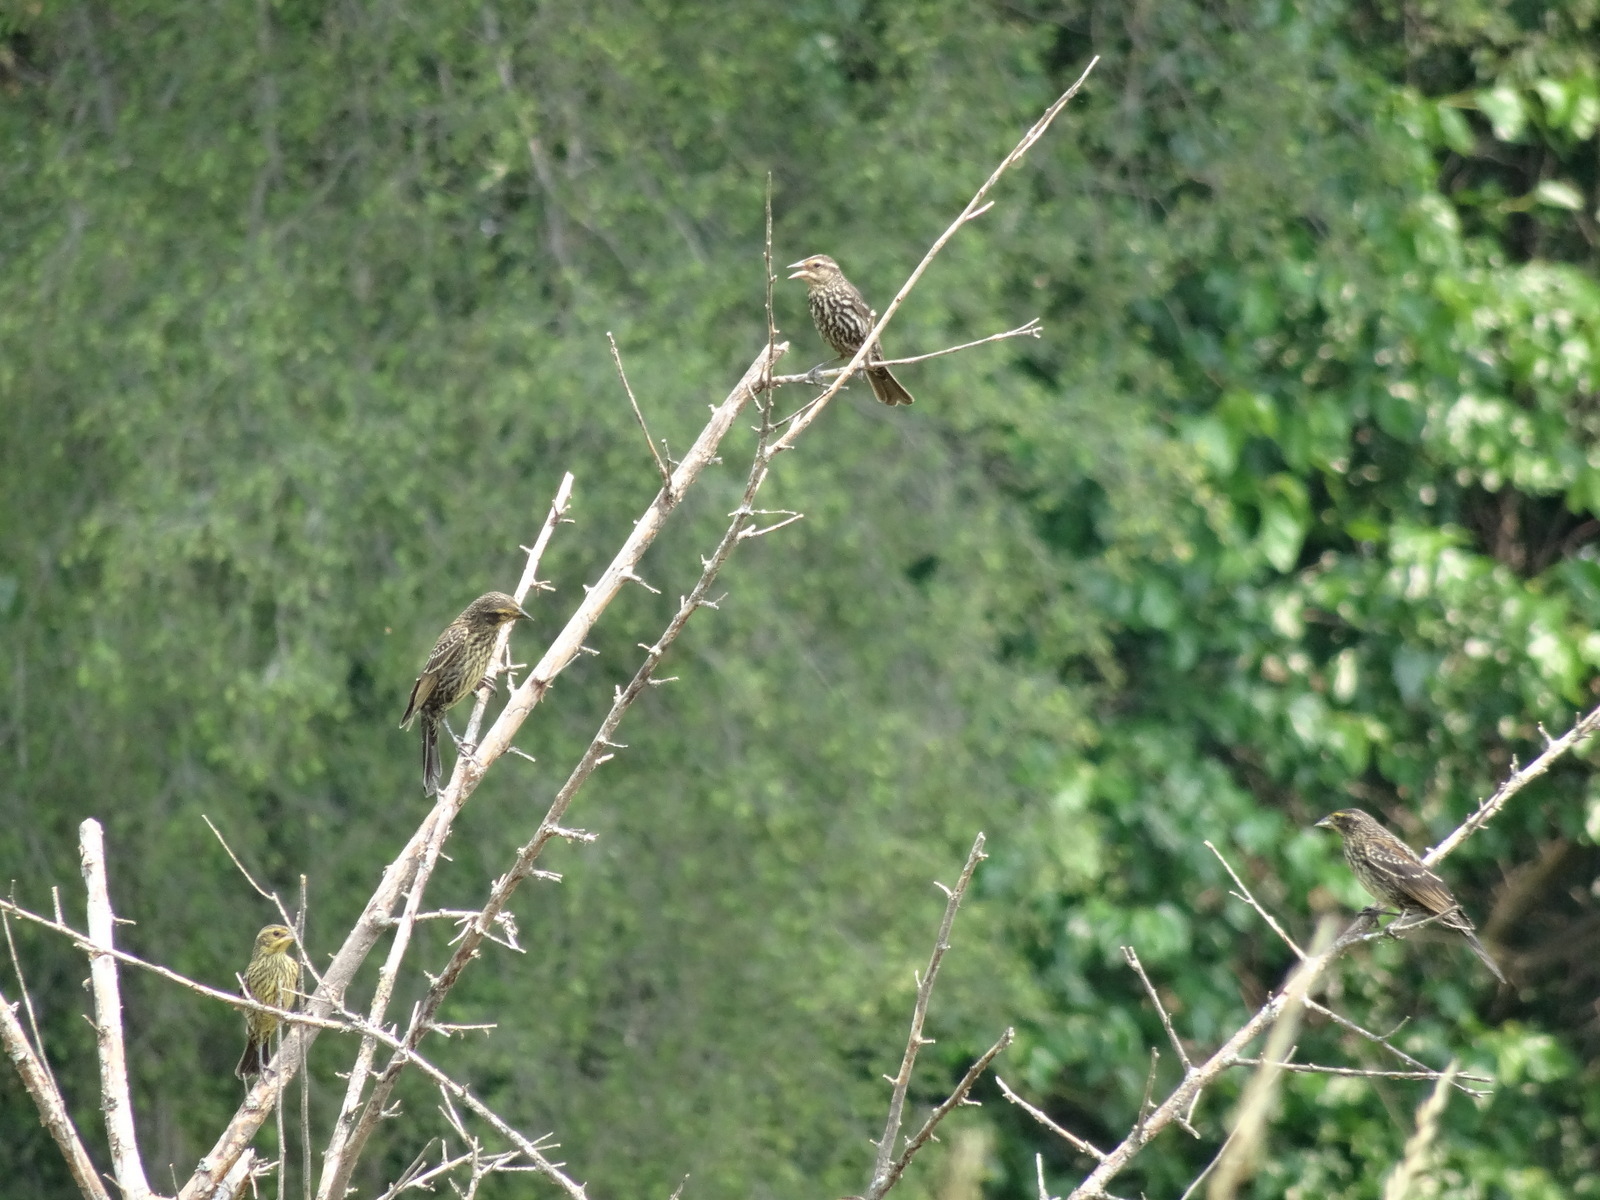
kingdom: Animalia
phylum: Chordata
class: Aves
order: Passeriformes
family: Icteridae
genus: Agelaius
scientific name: Agelaius phoeniceus
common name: Red-winged blackbird
